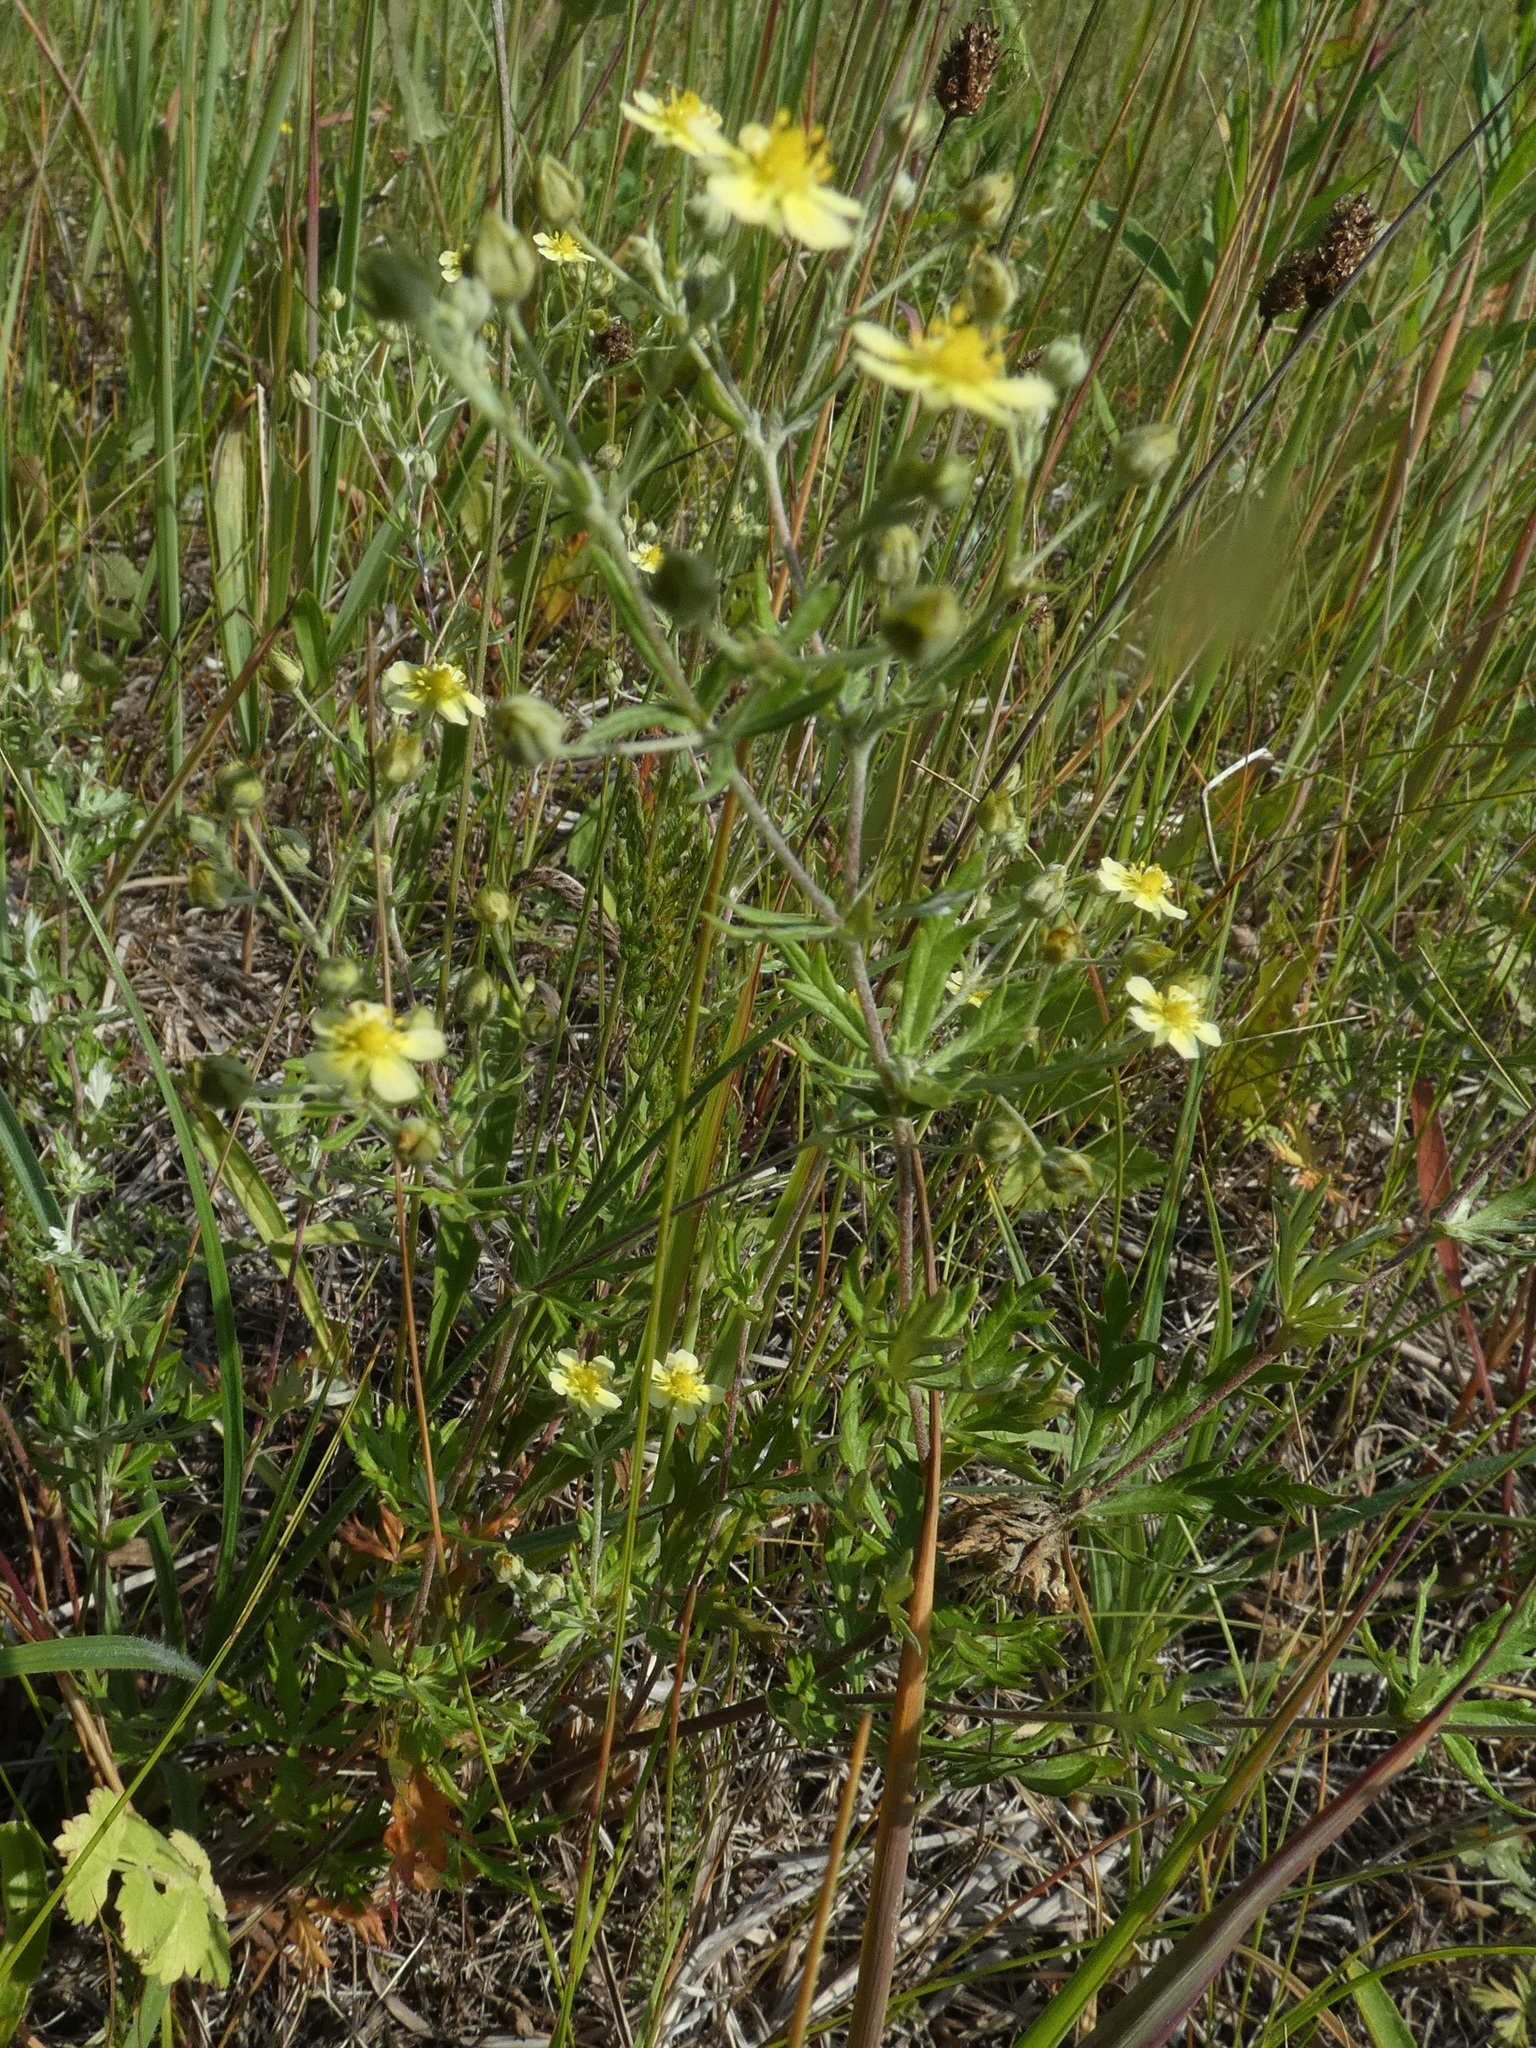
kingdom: Plantae
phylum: Tracheophyta
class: Magnoliopsida
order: Rosales
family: Rosaceae
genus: Potentilla
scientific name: Potentilla argentea
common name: Hoary cinquefoil
